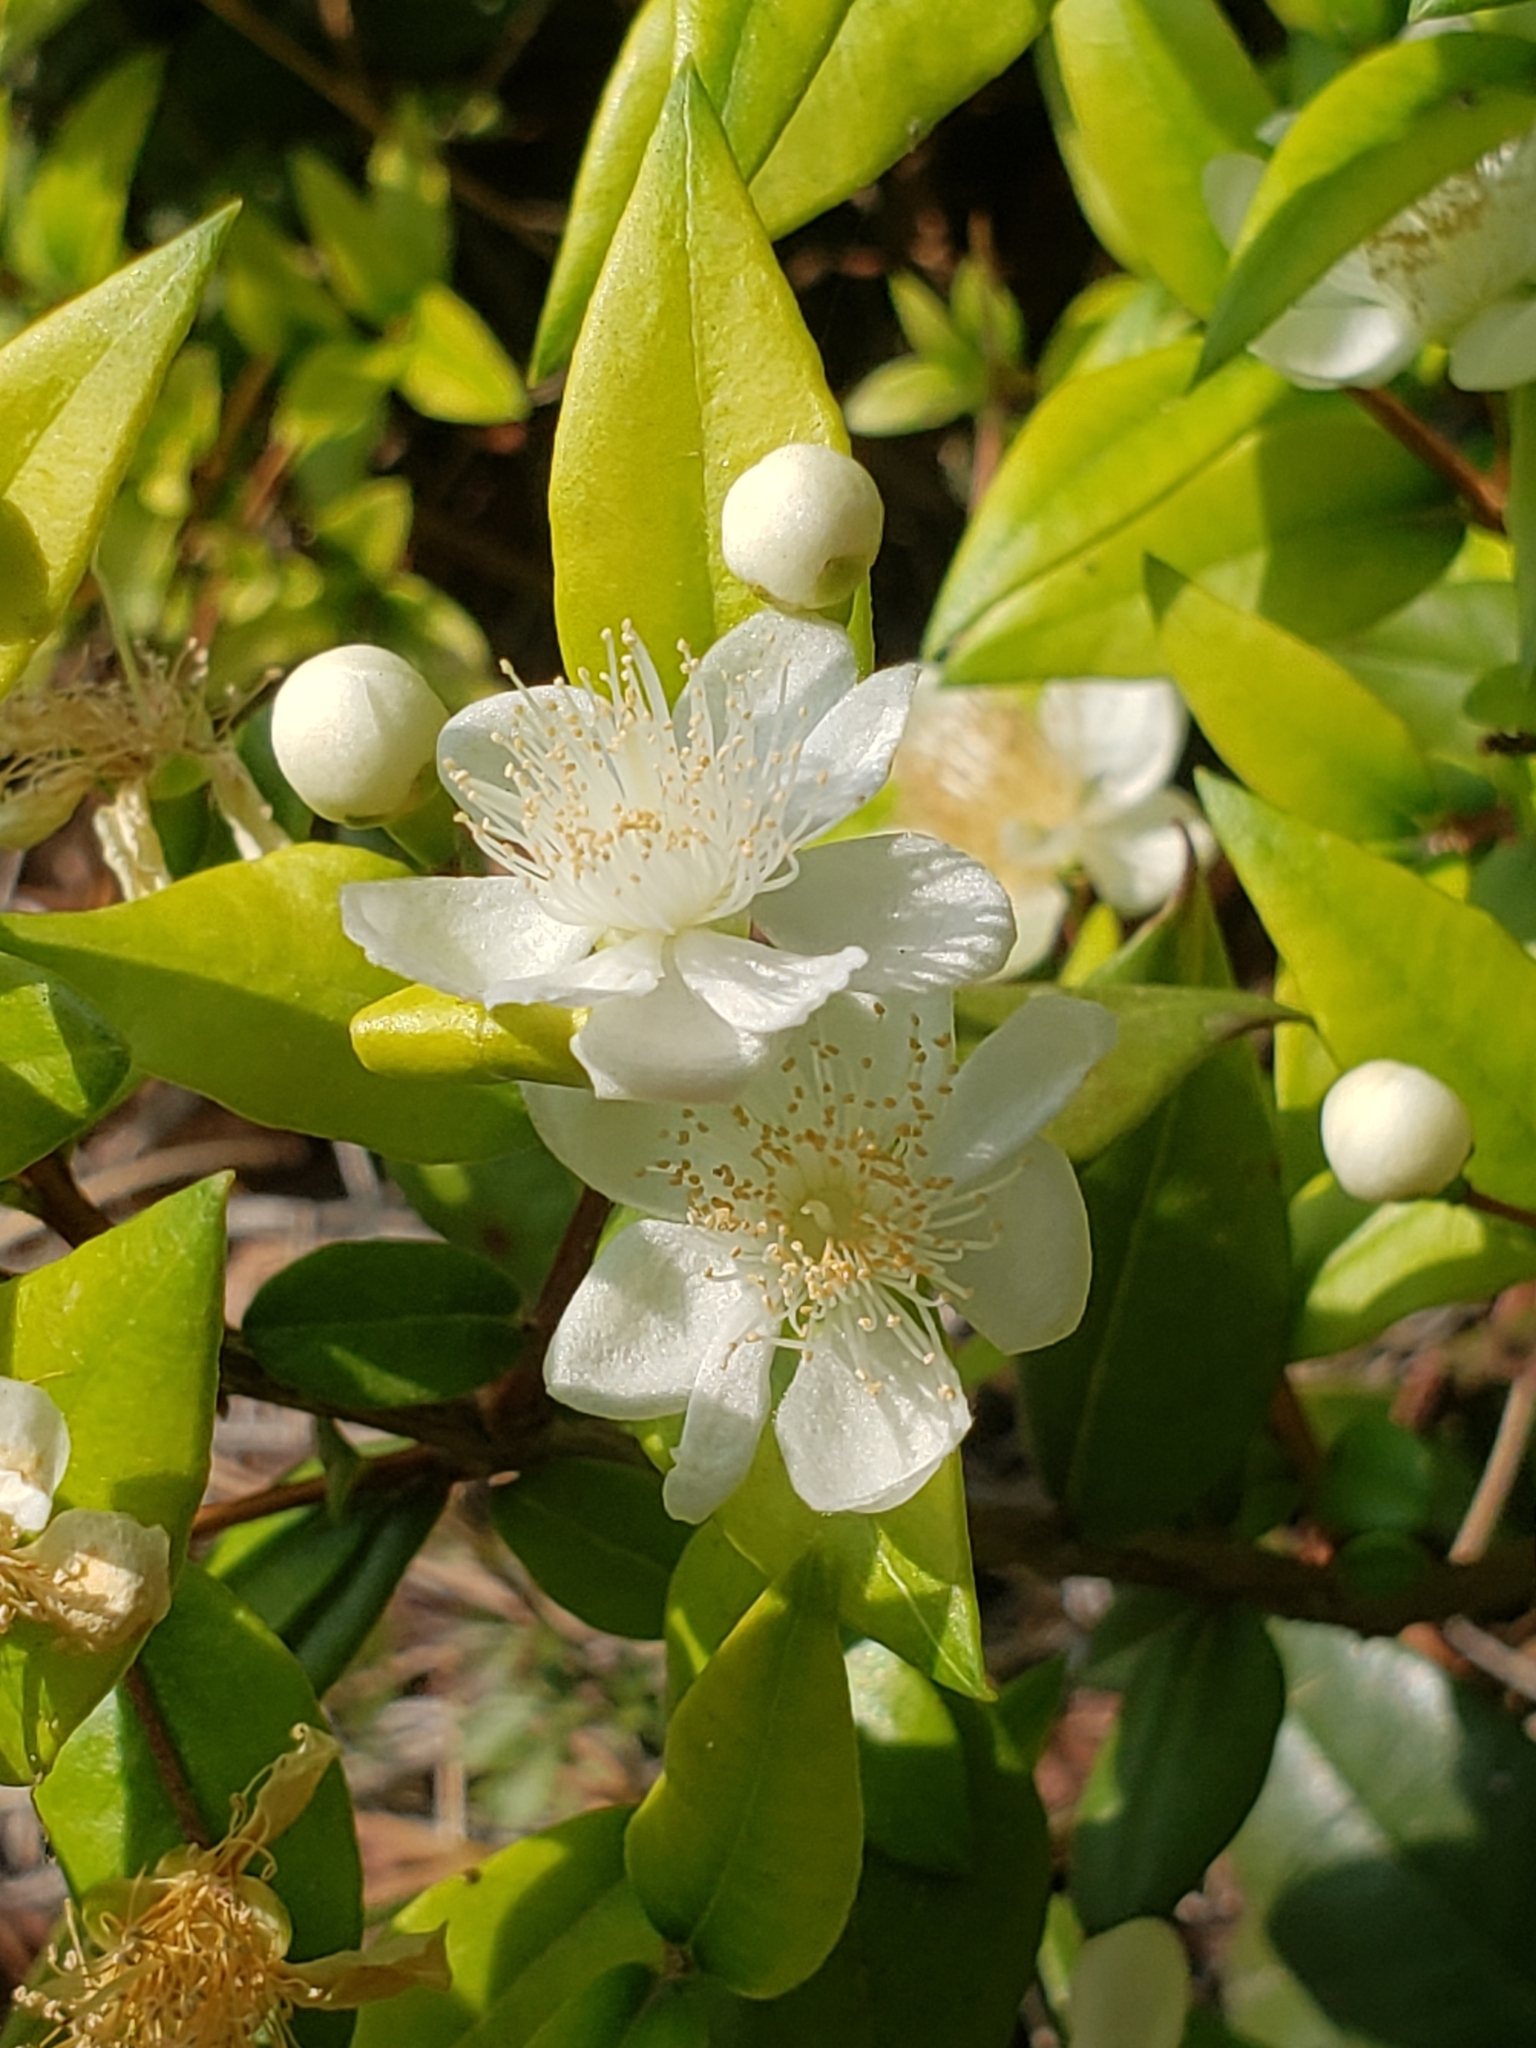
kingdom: Plantae
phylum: Tracheophyta
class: Magnoliopsida
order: Myrtales
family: Myrtaceae
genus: Myrtus
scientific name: Myrtus communis
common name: Myrtle
